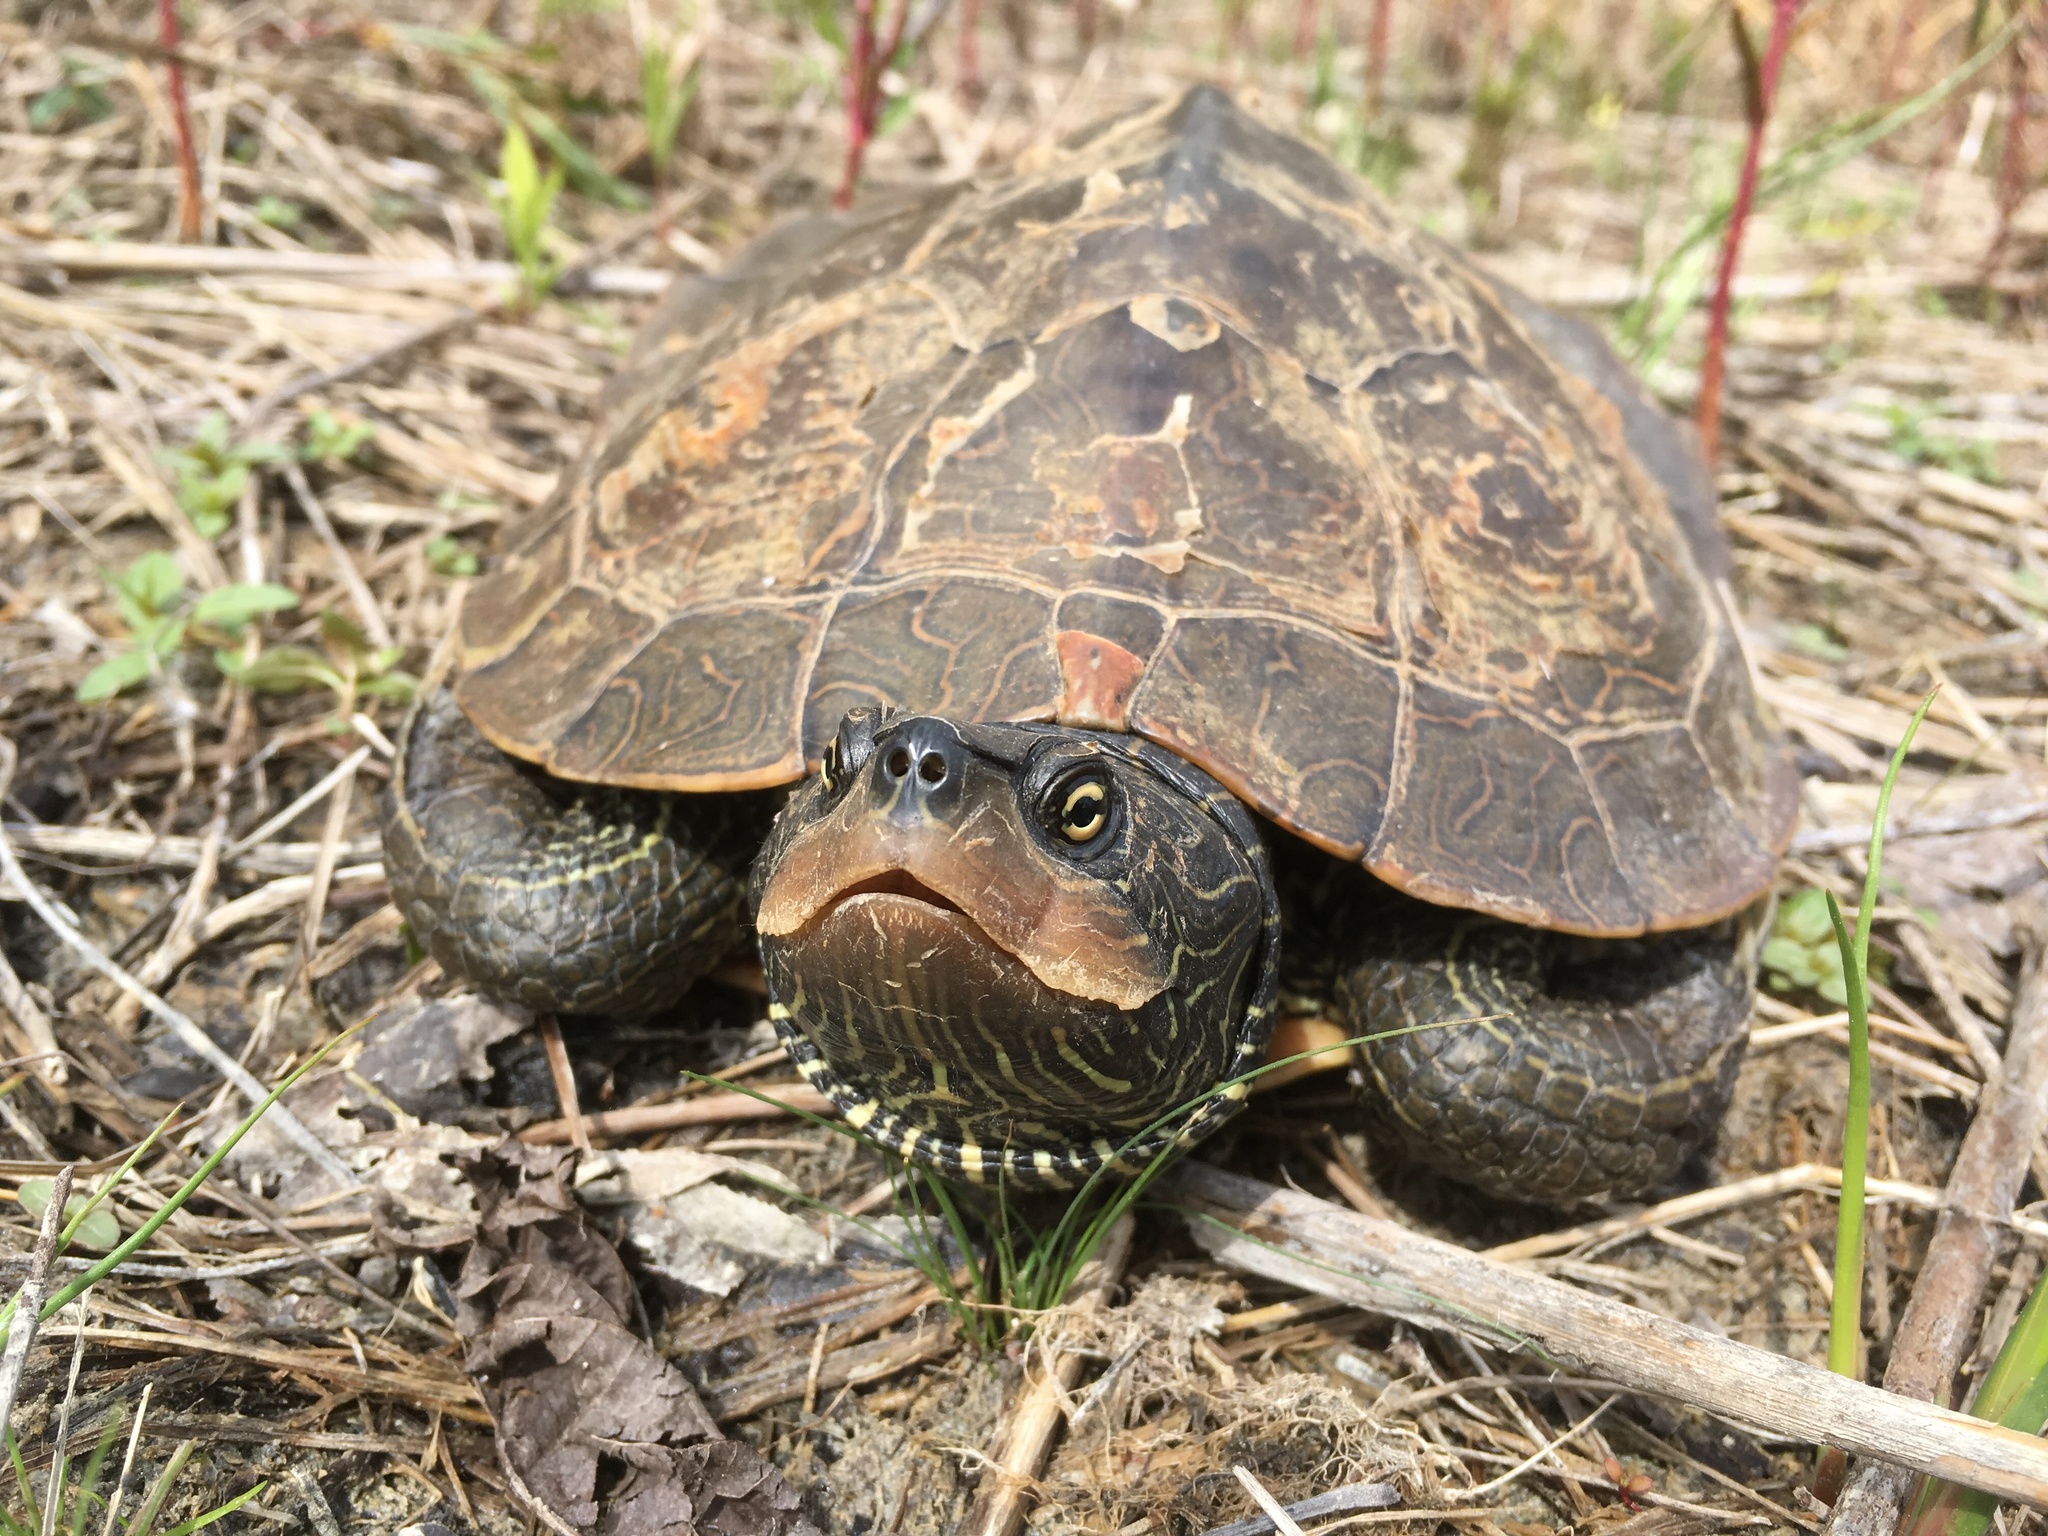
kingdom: Animalia
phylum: Chordata
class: Testudines
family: Emydidae
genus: Graptemys
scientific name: Graptemys geographica
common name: Common map turtle
